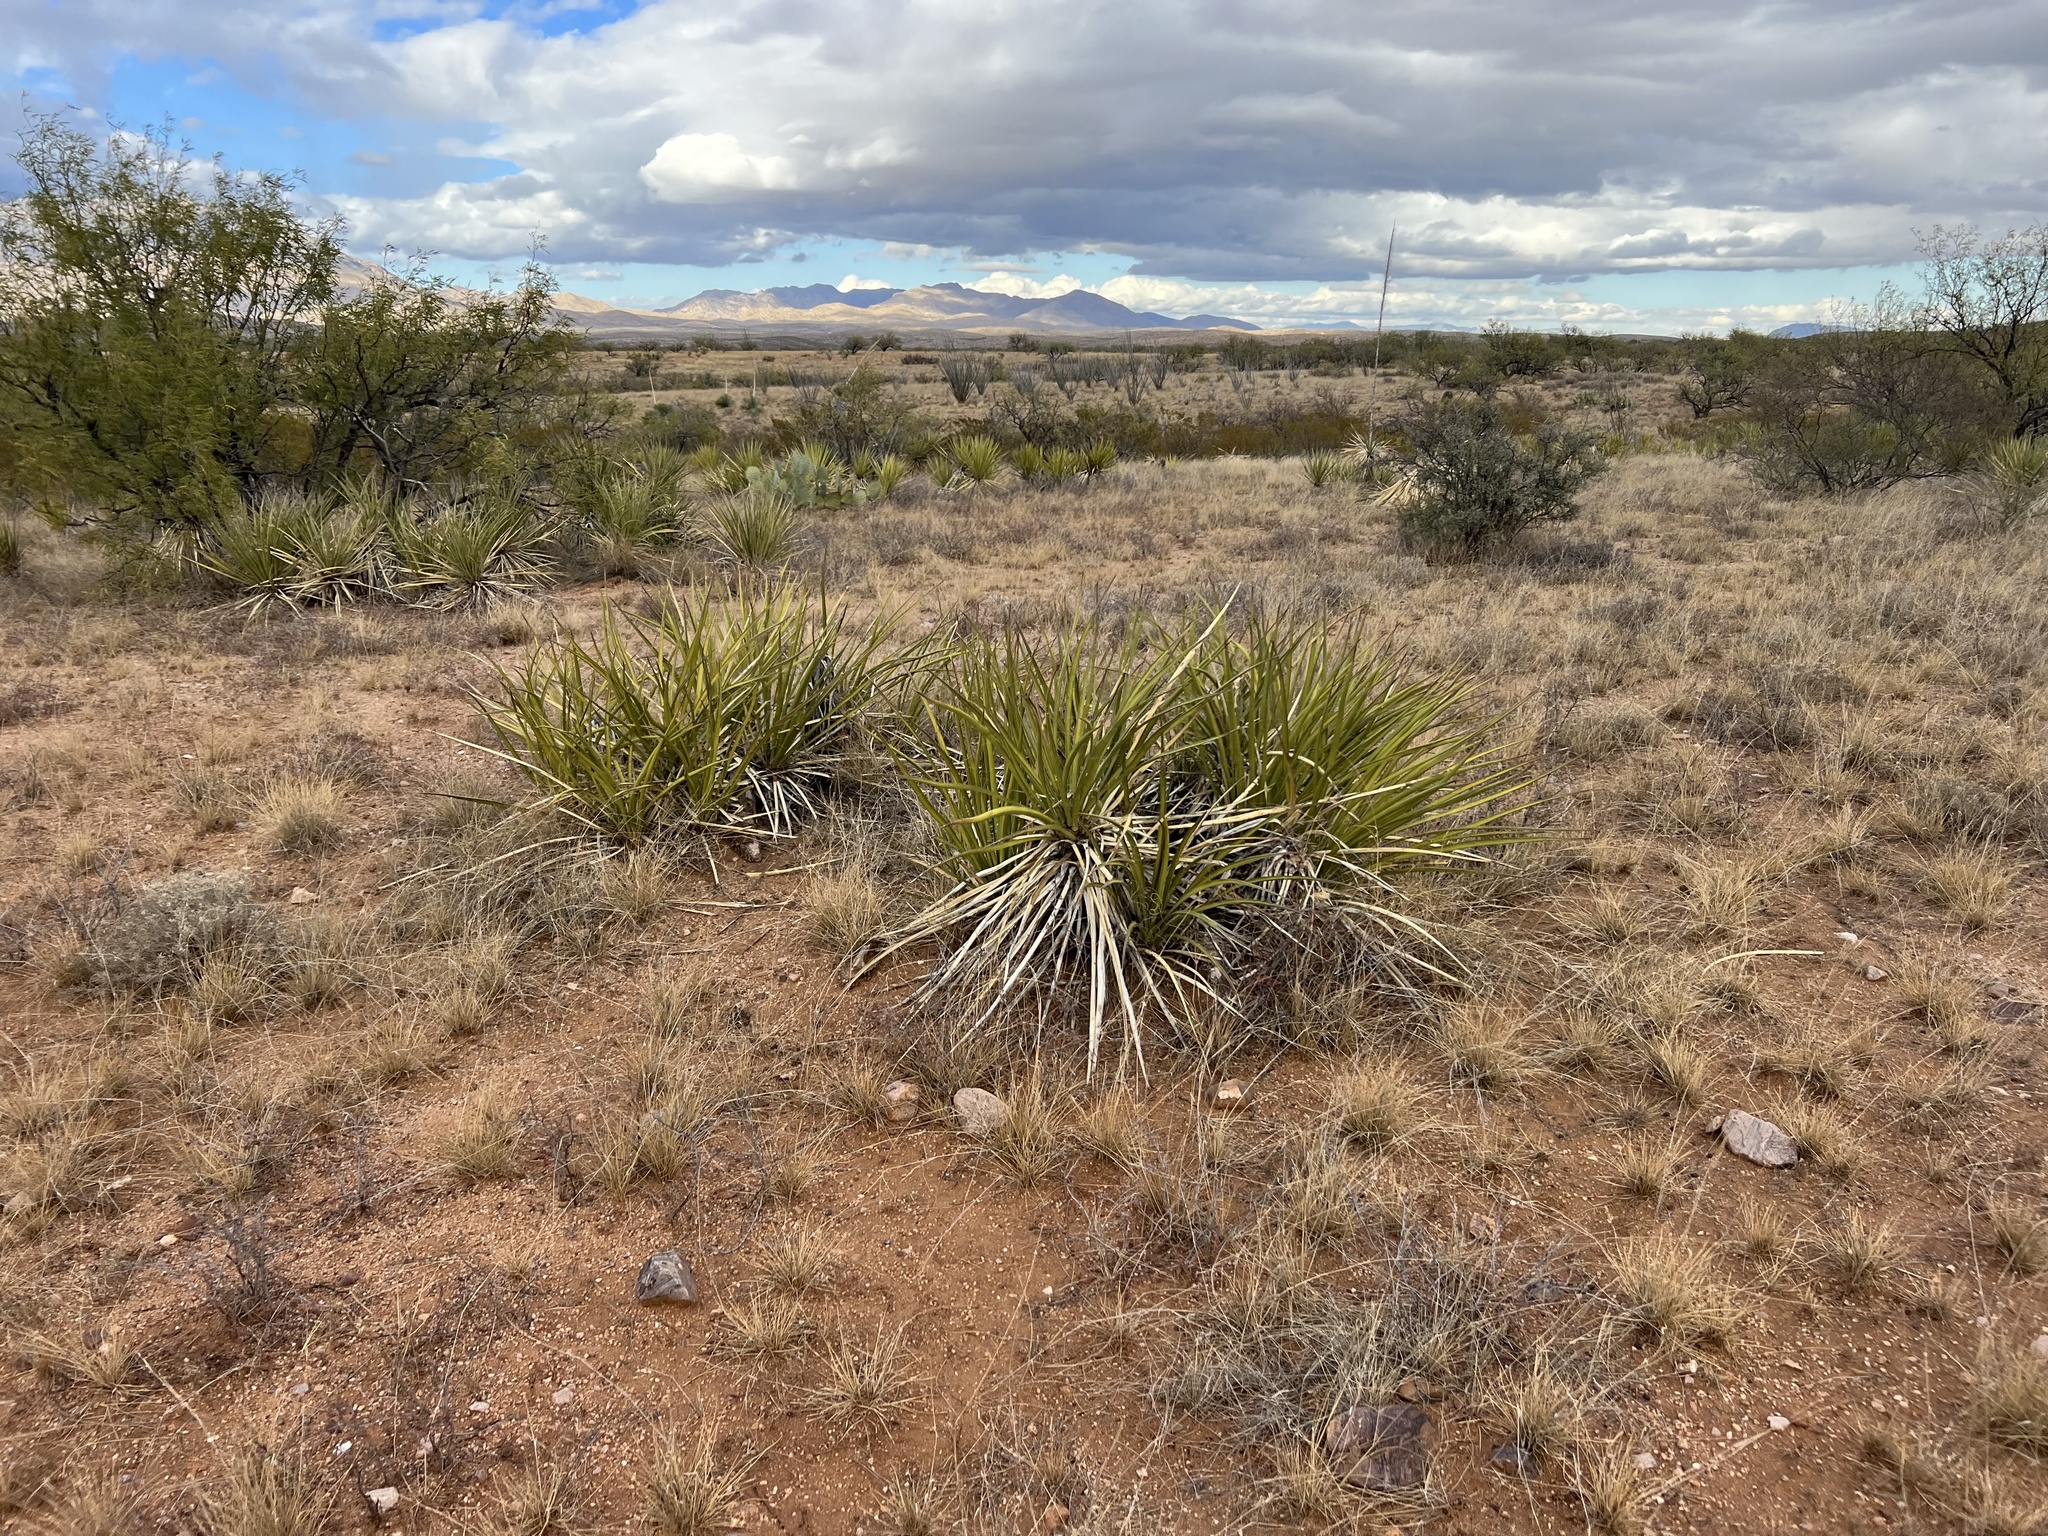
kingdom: Plantae
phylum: Tracheophyta
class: Liliopsida
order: Asparagales
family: Asparagaceae
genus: Yucca
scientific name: Yucca baccata
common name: Banana yucca
